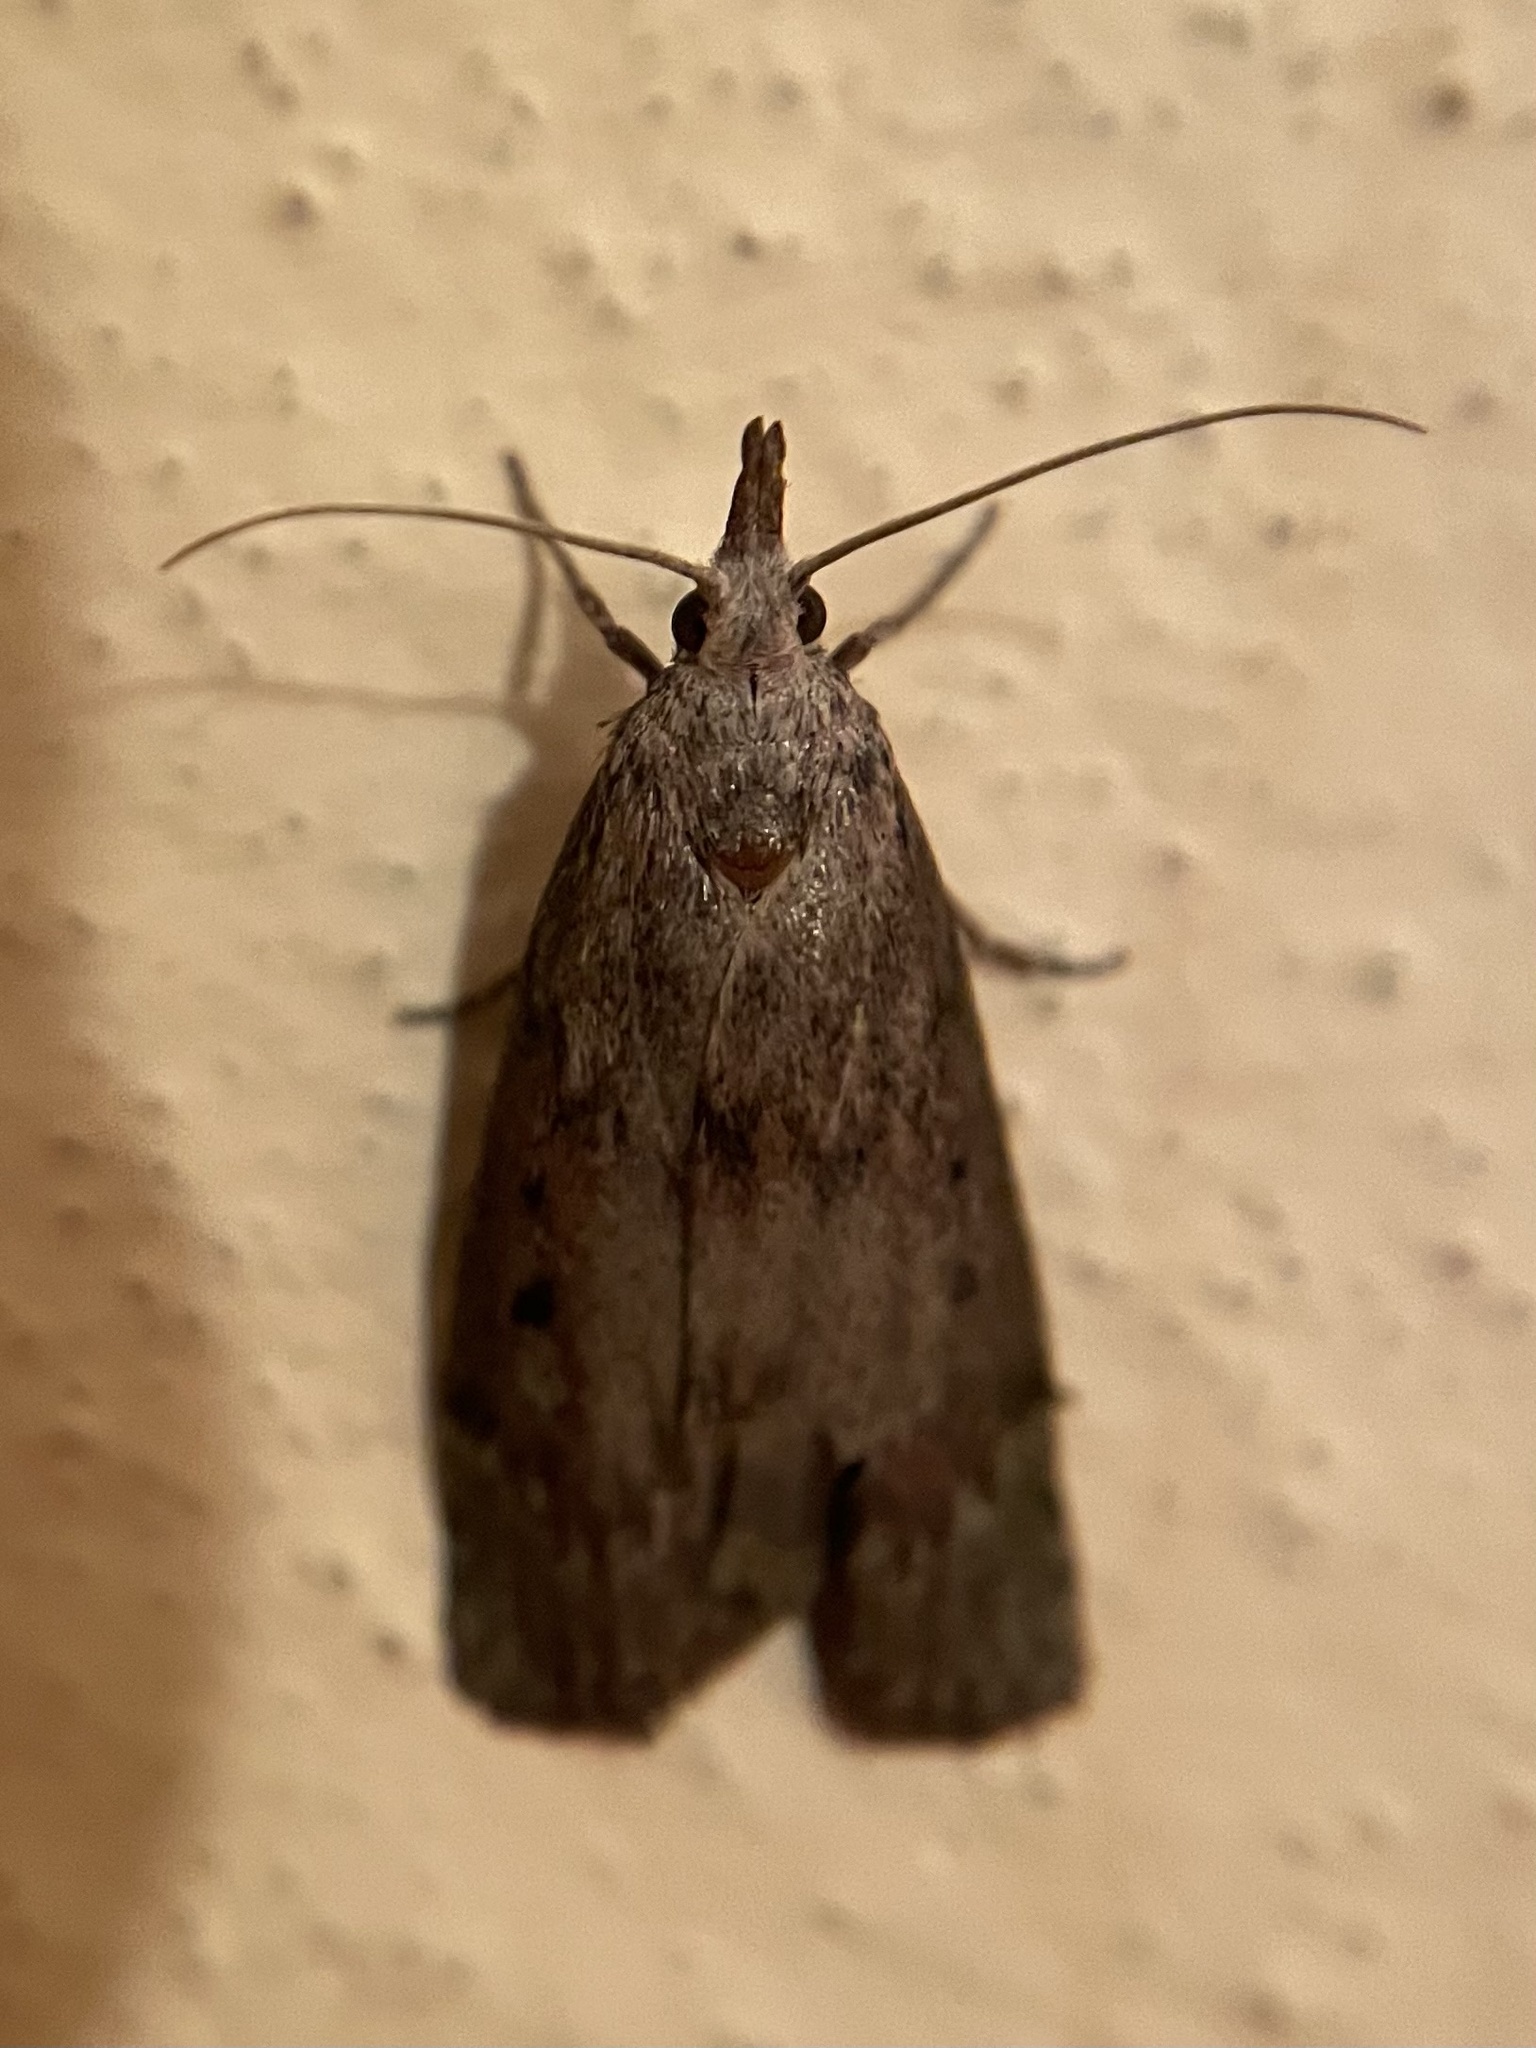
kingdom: Animalia
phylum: Arthropoda
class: Insecta
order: Lepidoptera
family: Pyralidae
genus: Aphomia
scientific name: Aphomia sociella
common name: Bee moth
